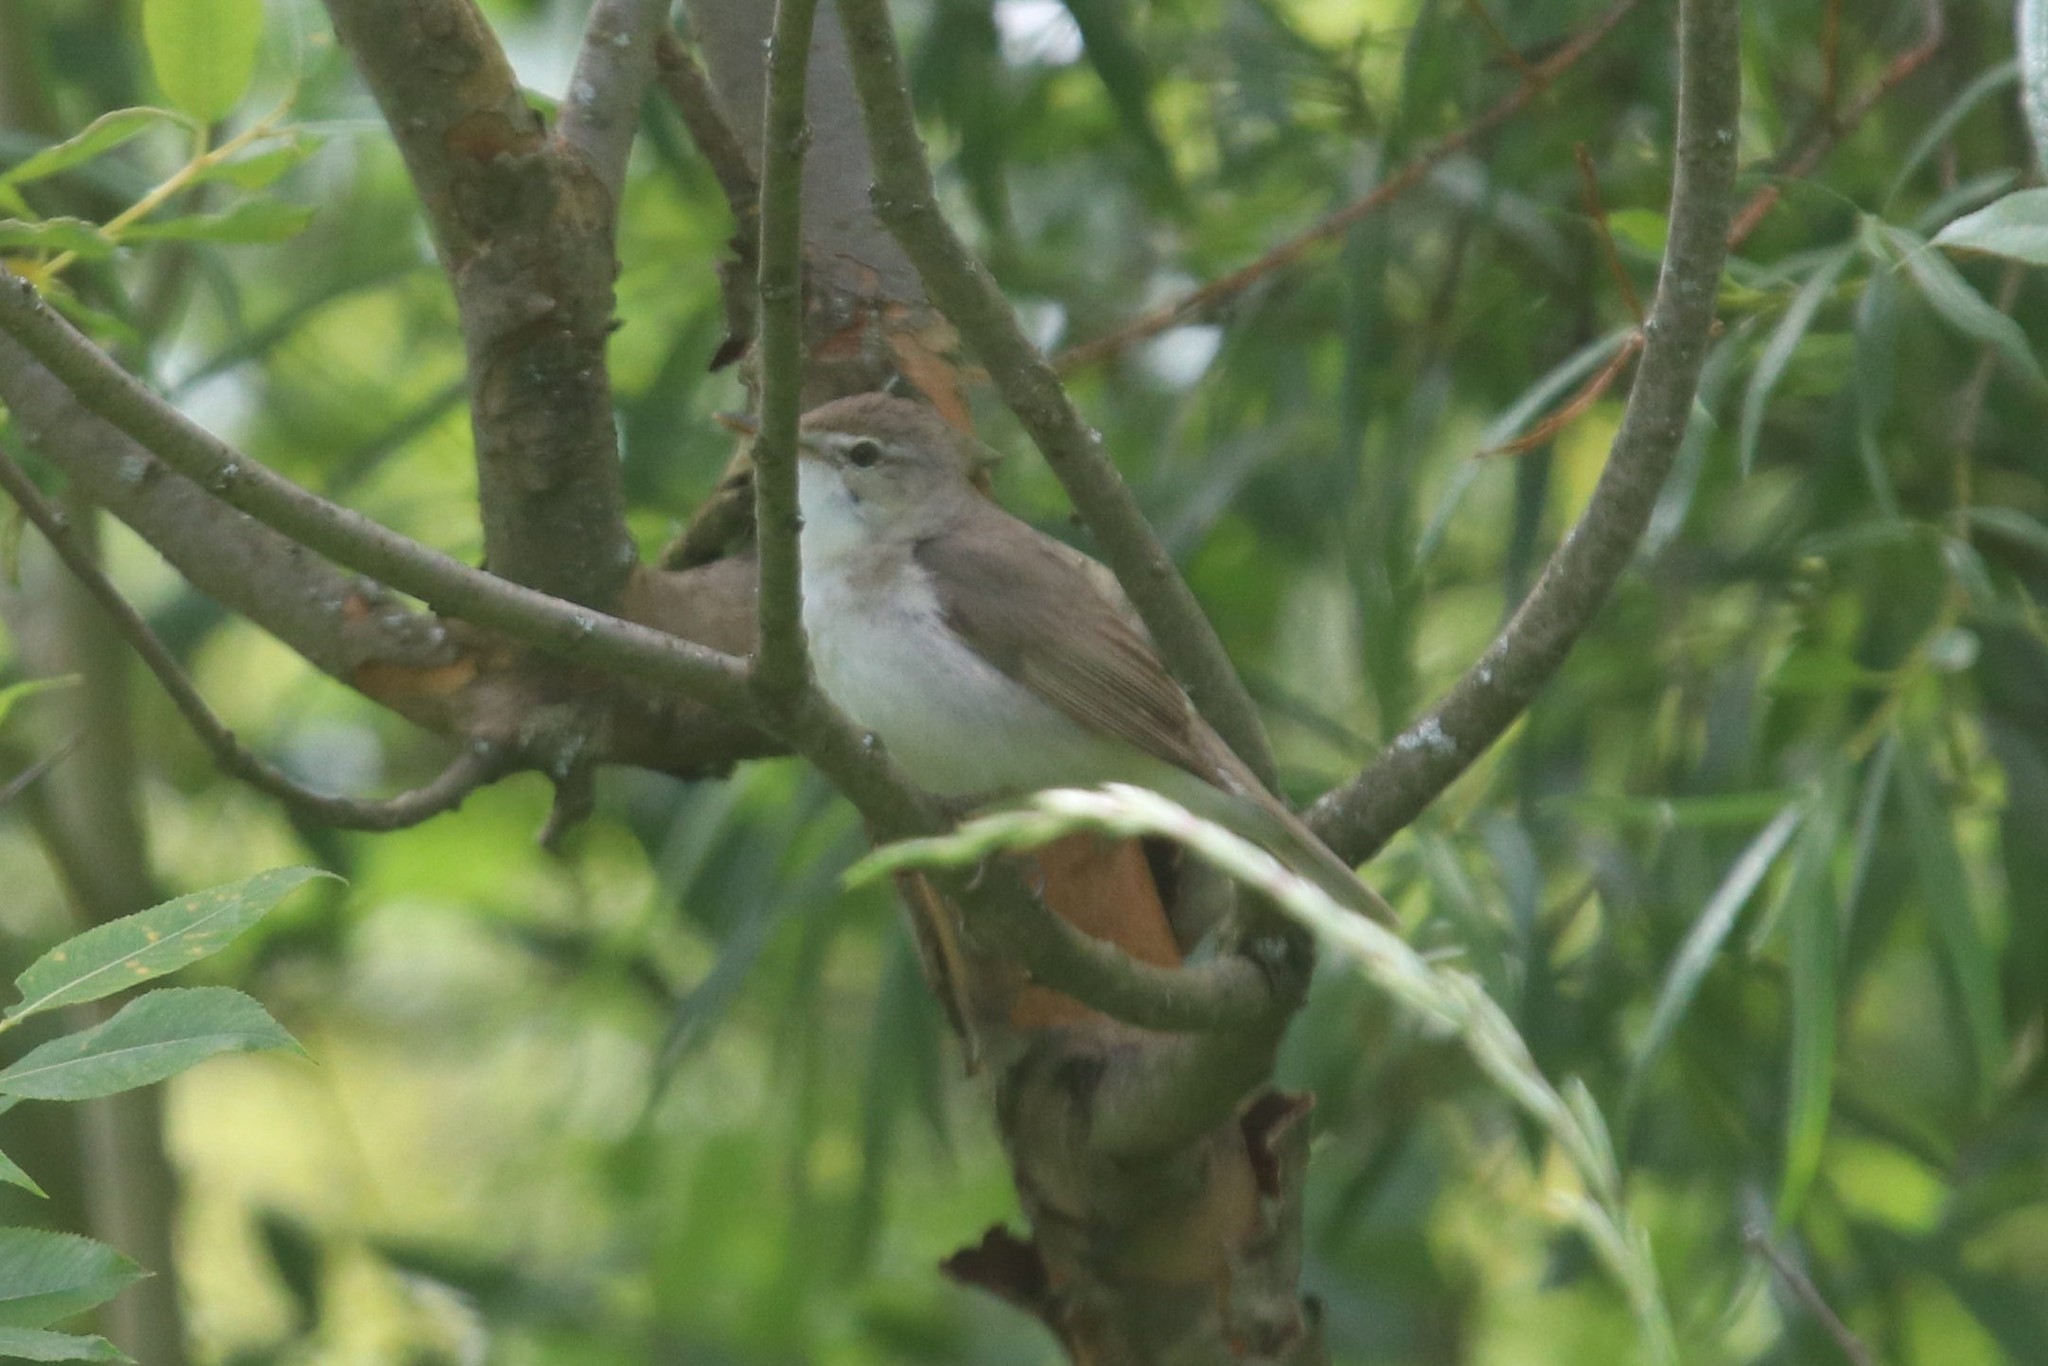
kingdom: Animalia
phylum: Chordata
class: Aves
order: Passeriformes
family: Acrocephalidae
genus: Acrocephalus
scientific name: Acrocephalus dumetorum
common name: Blyth's reed warbler
